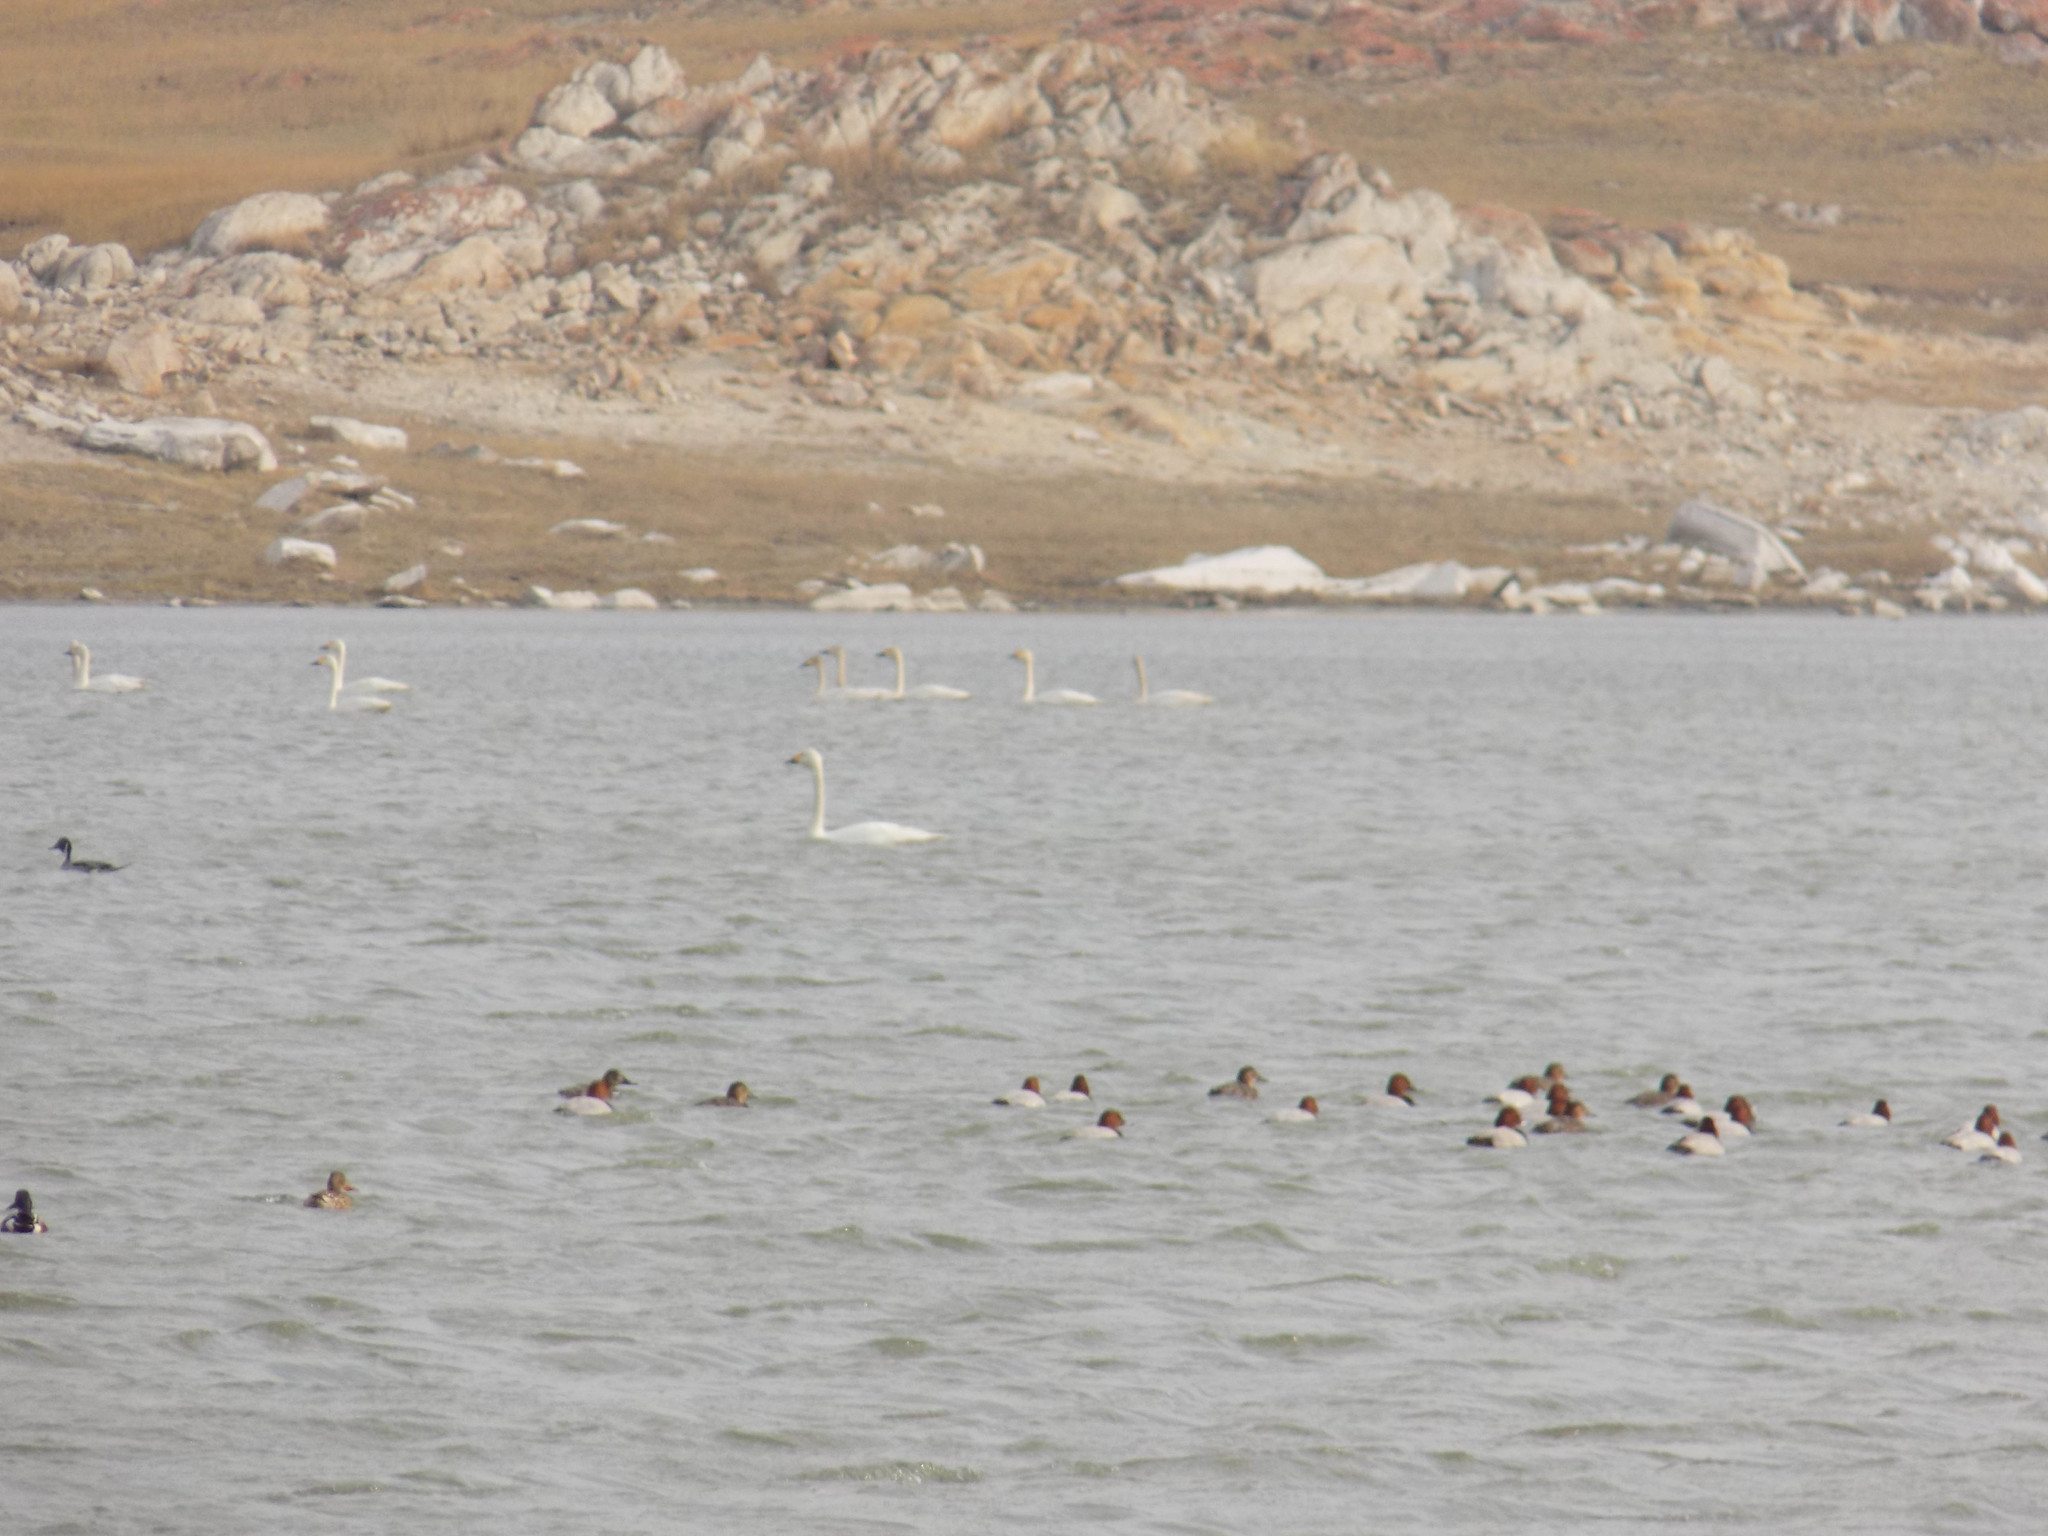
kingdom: Animalia
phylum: Chordata
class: Aves
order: Anseriformes
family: Anatidae
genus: Spatula
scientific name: Spatula clypeata
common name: Northern shoveler
